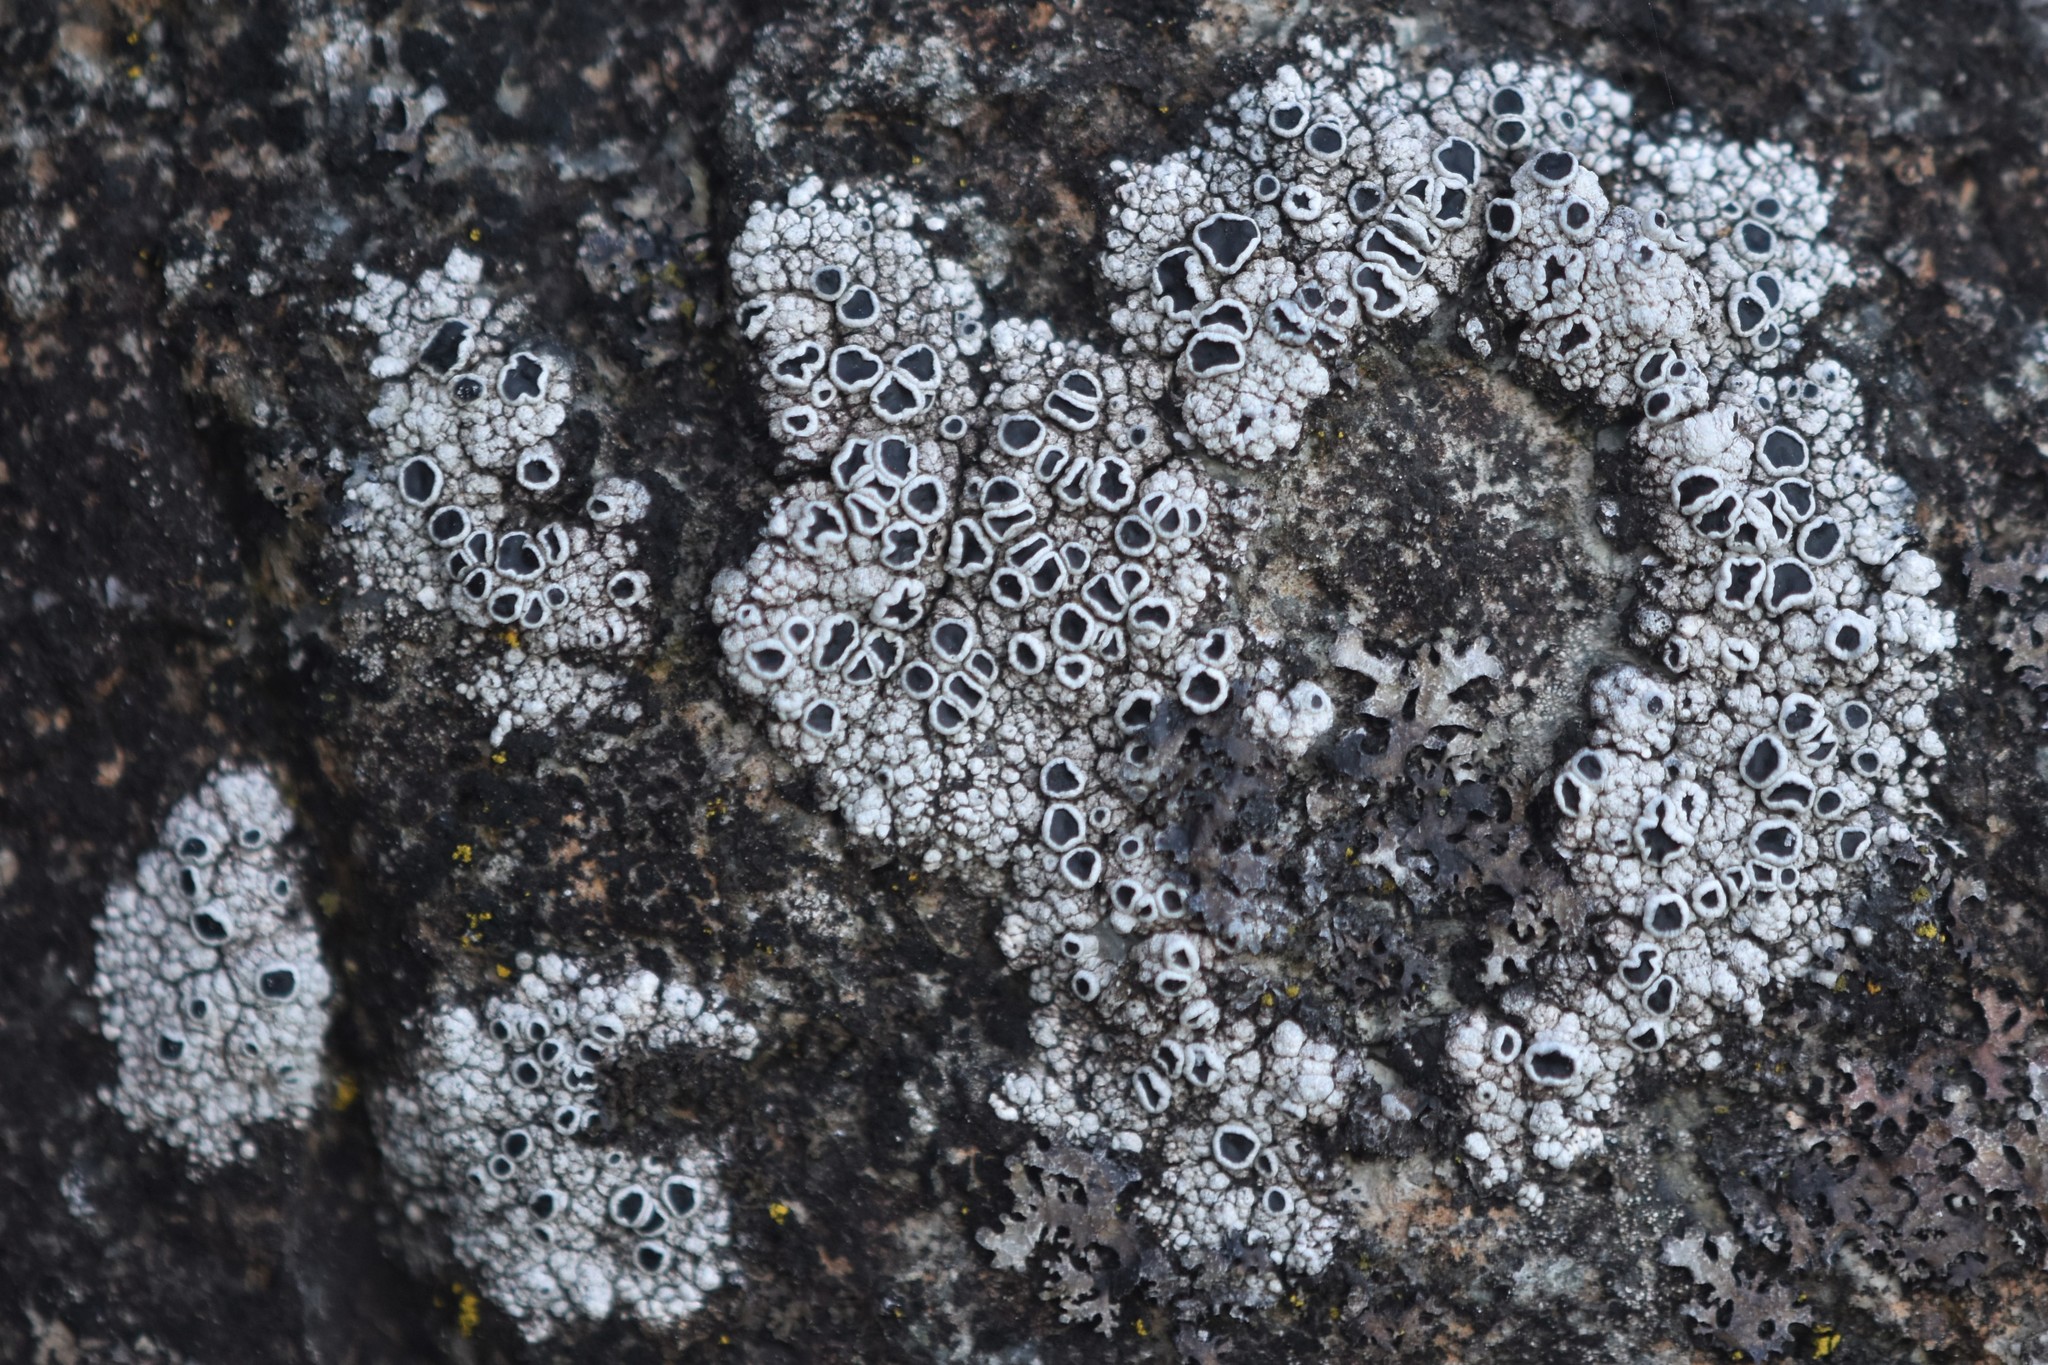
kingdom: Fungi
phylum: Ascomycota
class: Lecanoromycetes
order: Lecanorales
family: Tephromelataceae
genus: Tephromela
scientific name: Tephromela atra
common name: Black shields
